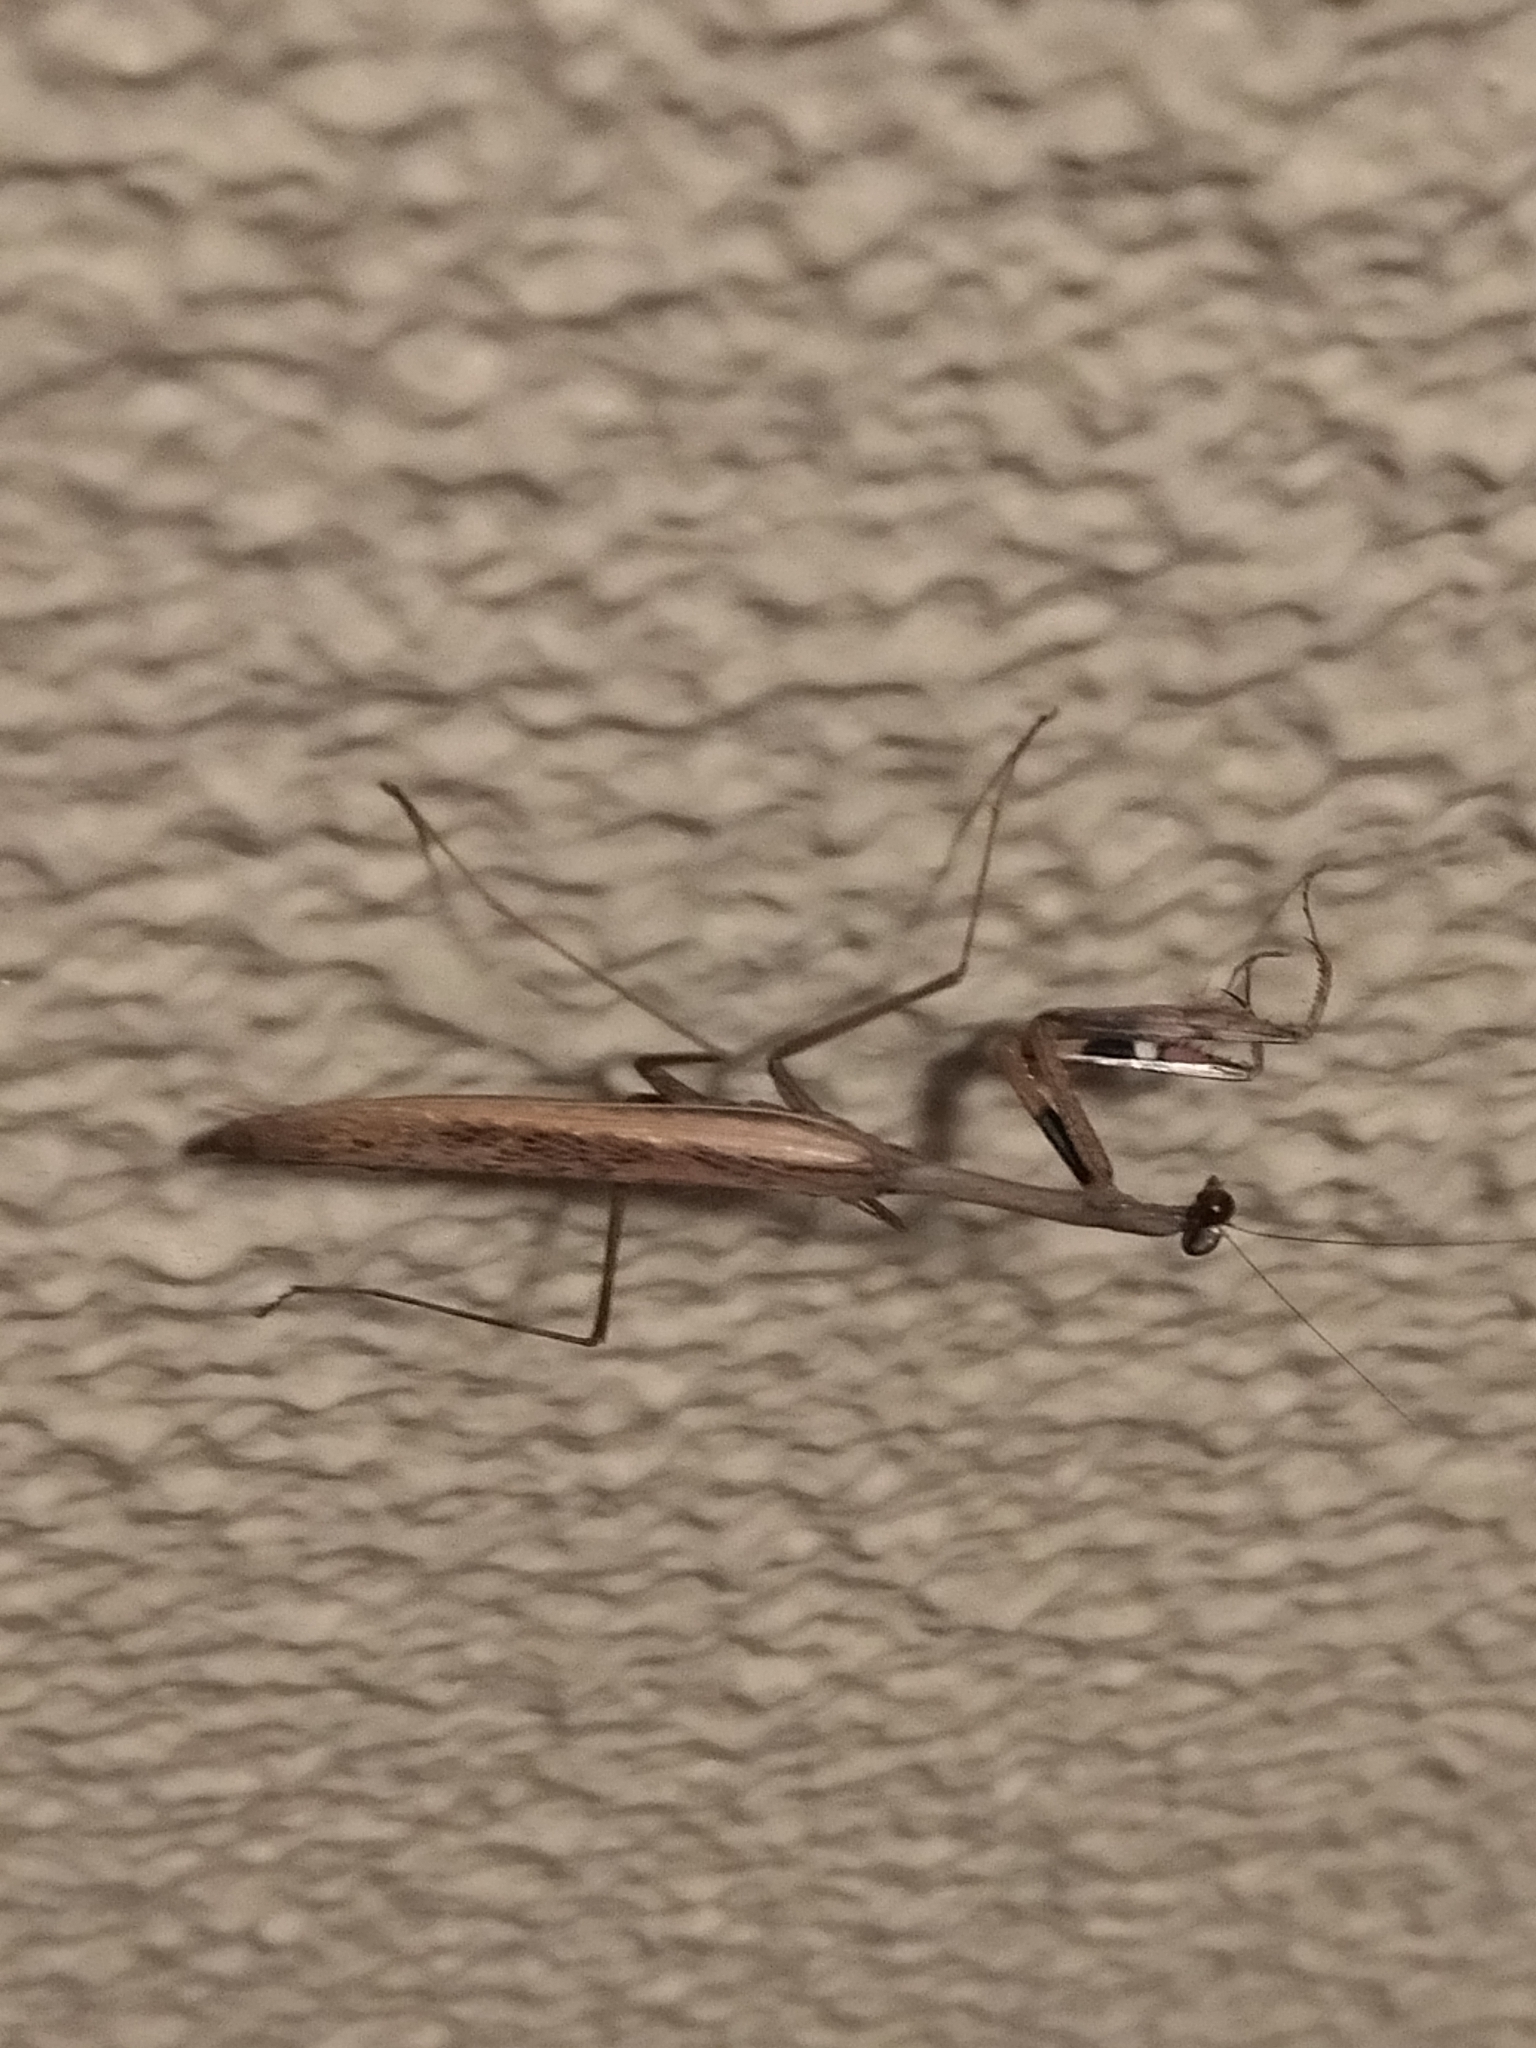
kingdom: Animalia
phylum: Arthropoda
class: Insecta
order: Mantodea
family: Mantidae
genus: Statilia
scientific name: Statilia maculata
